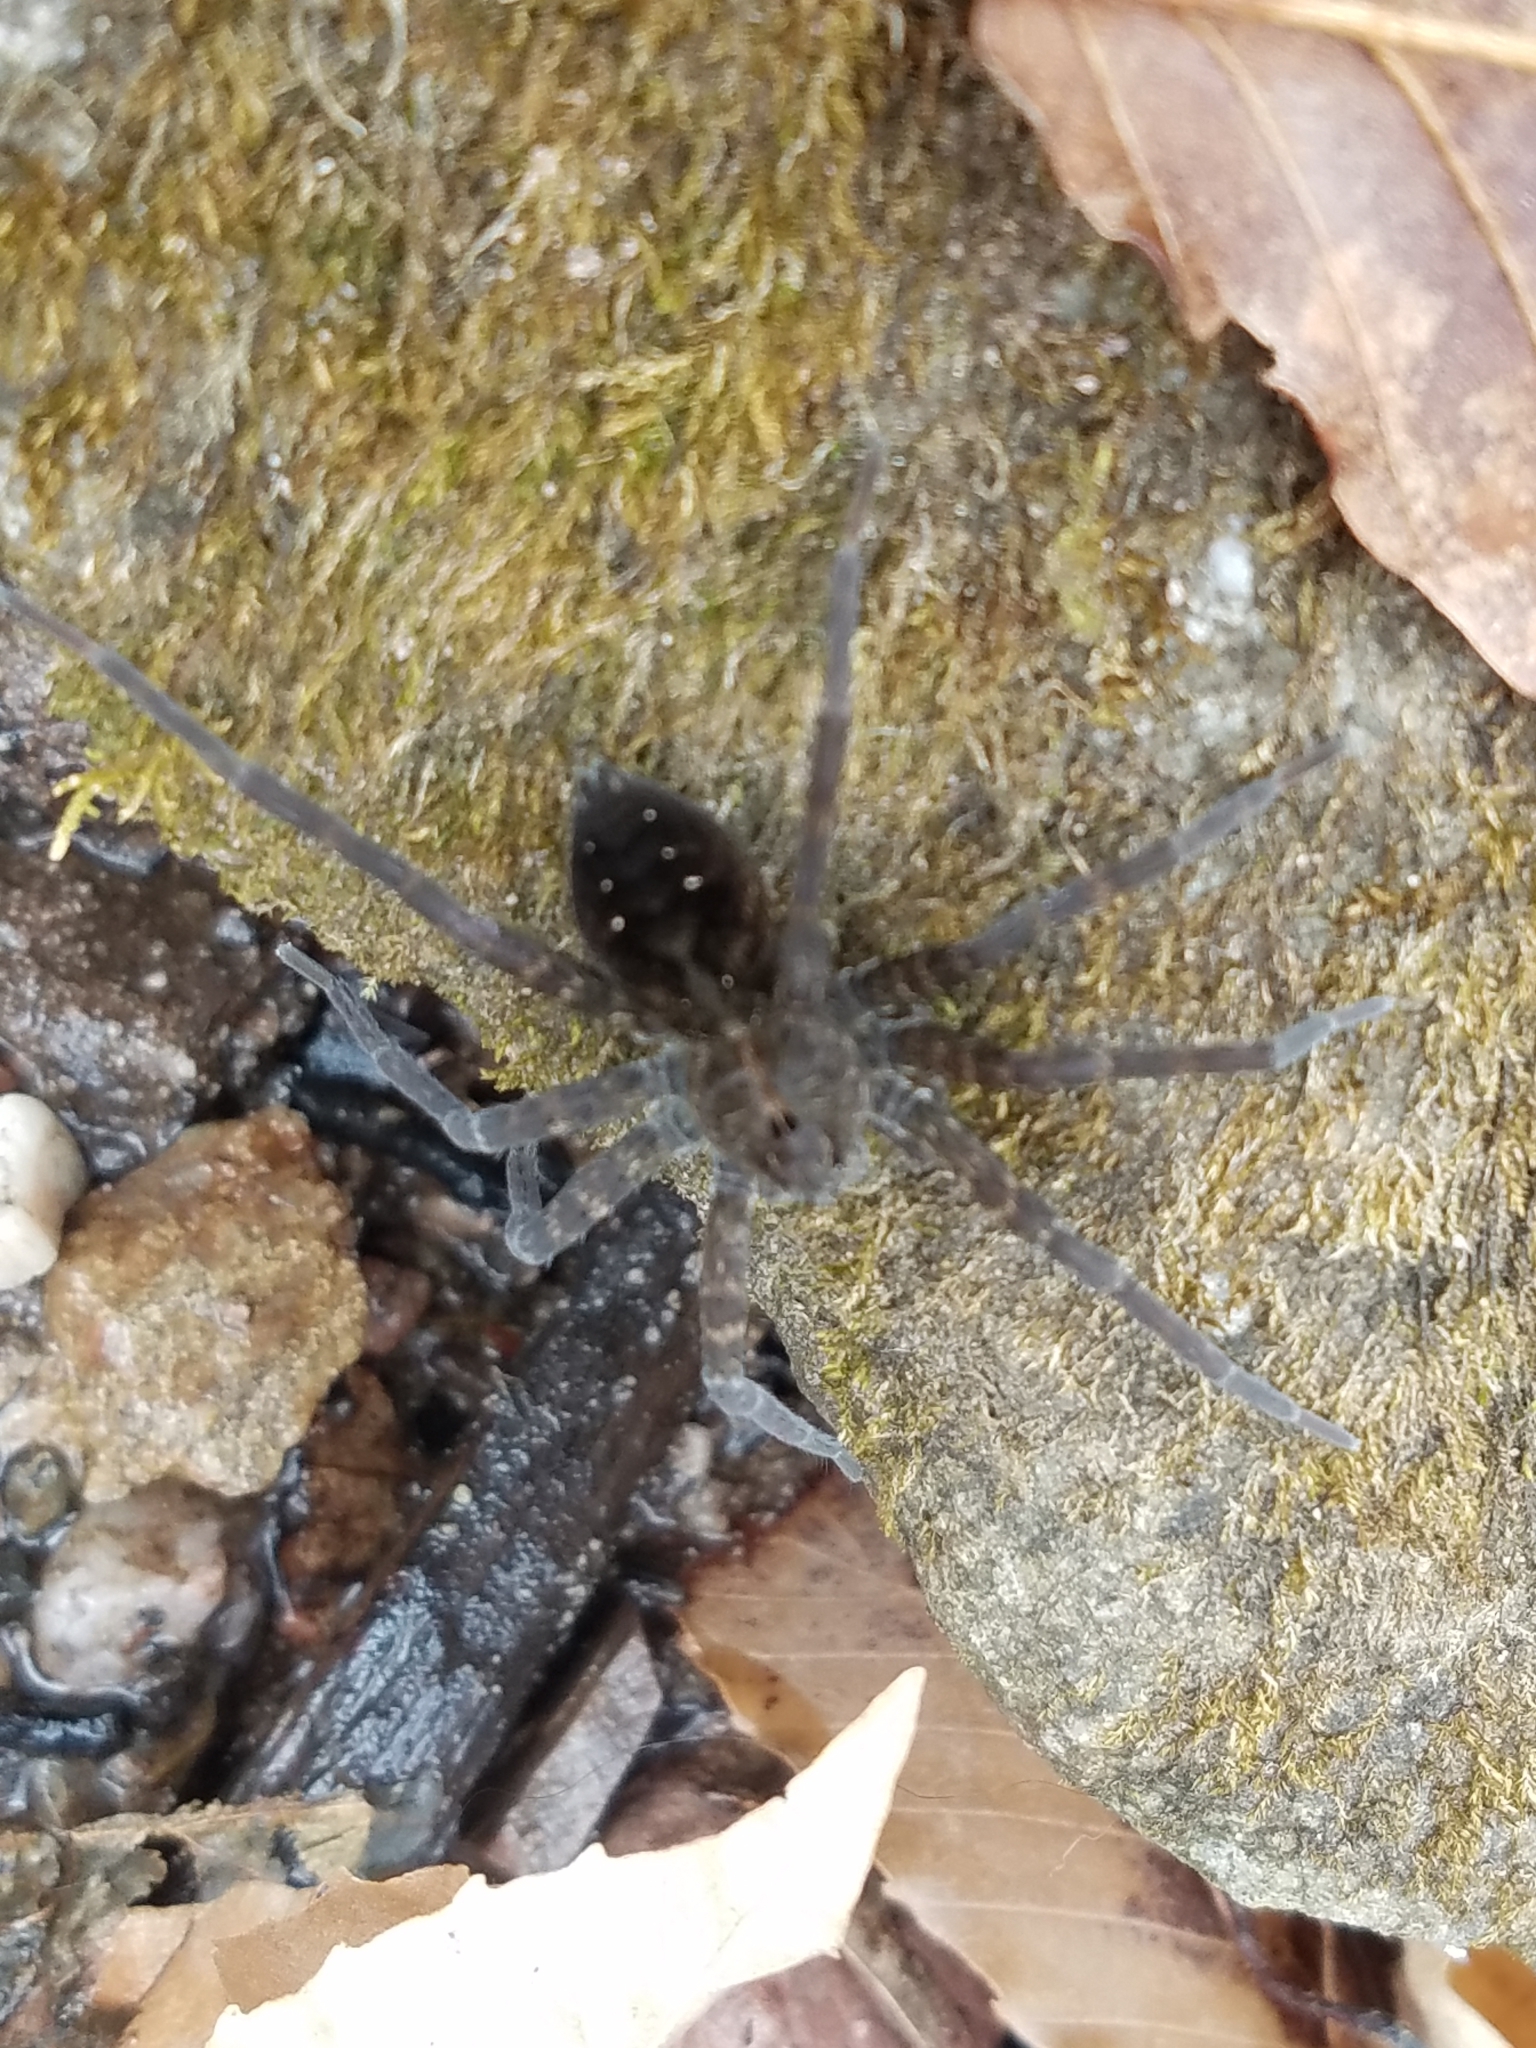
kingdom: Animalia
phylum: Arthropoda
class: Arachnida
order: Araneae
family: Pisauridae
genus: Dolomedes
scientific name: Dolomedes vittatus
